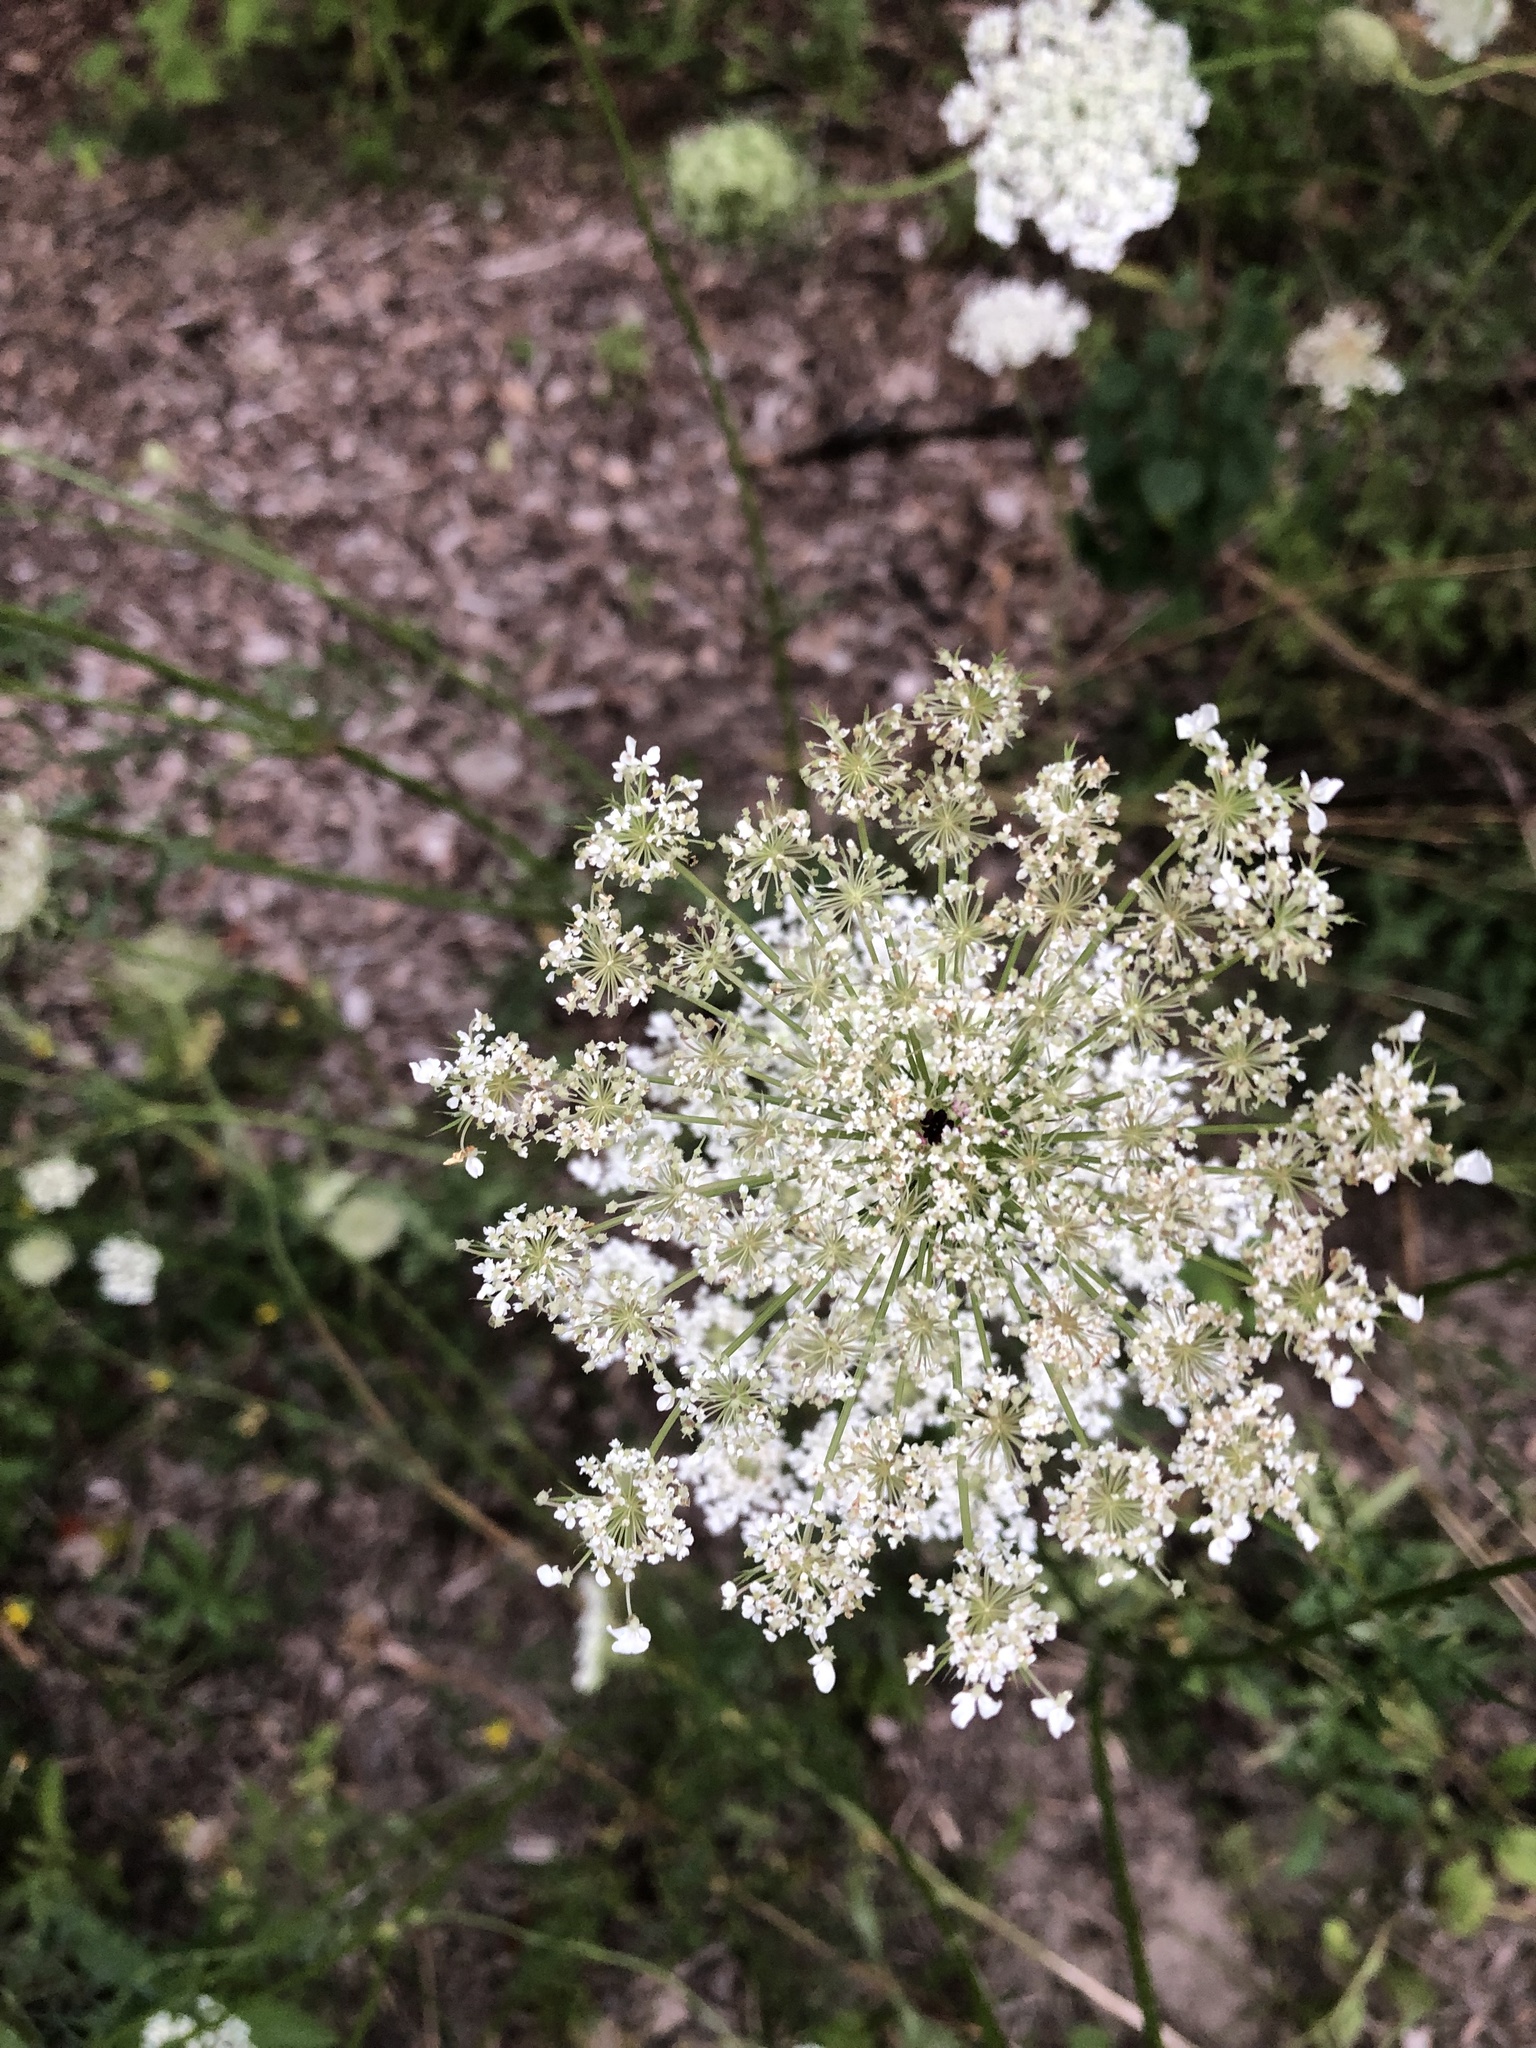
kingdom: Plantae
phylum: Tracheophyta
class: Magnoliopsida
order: Apiales
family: Apiaceae
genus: Daucus
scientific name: Daucus carota
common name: Wild carrot
